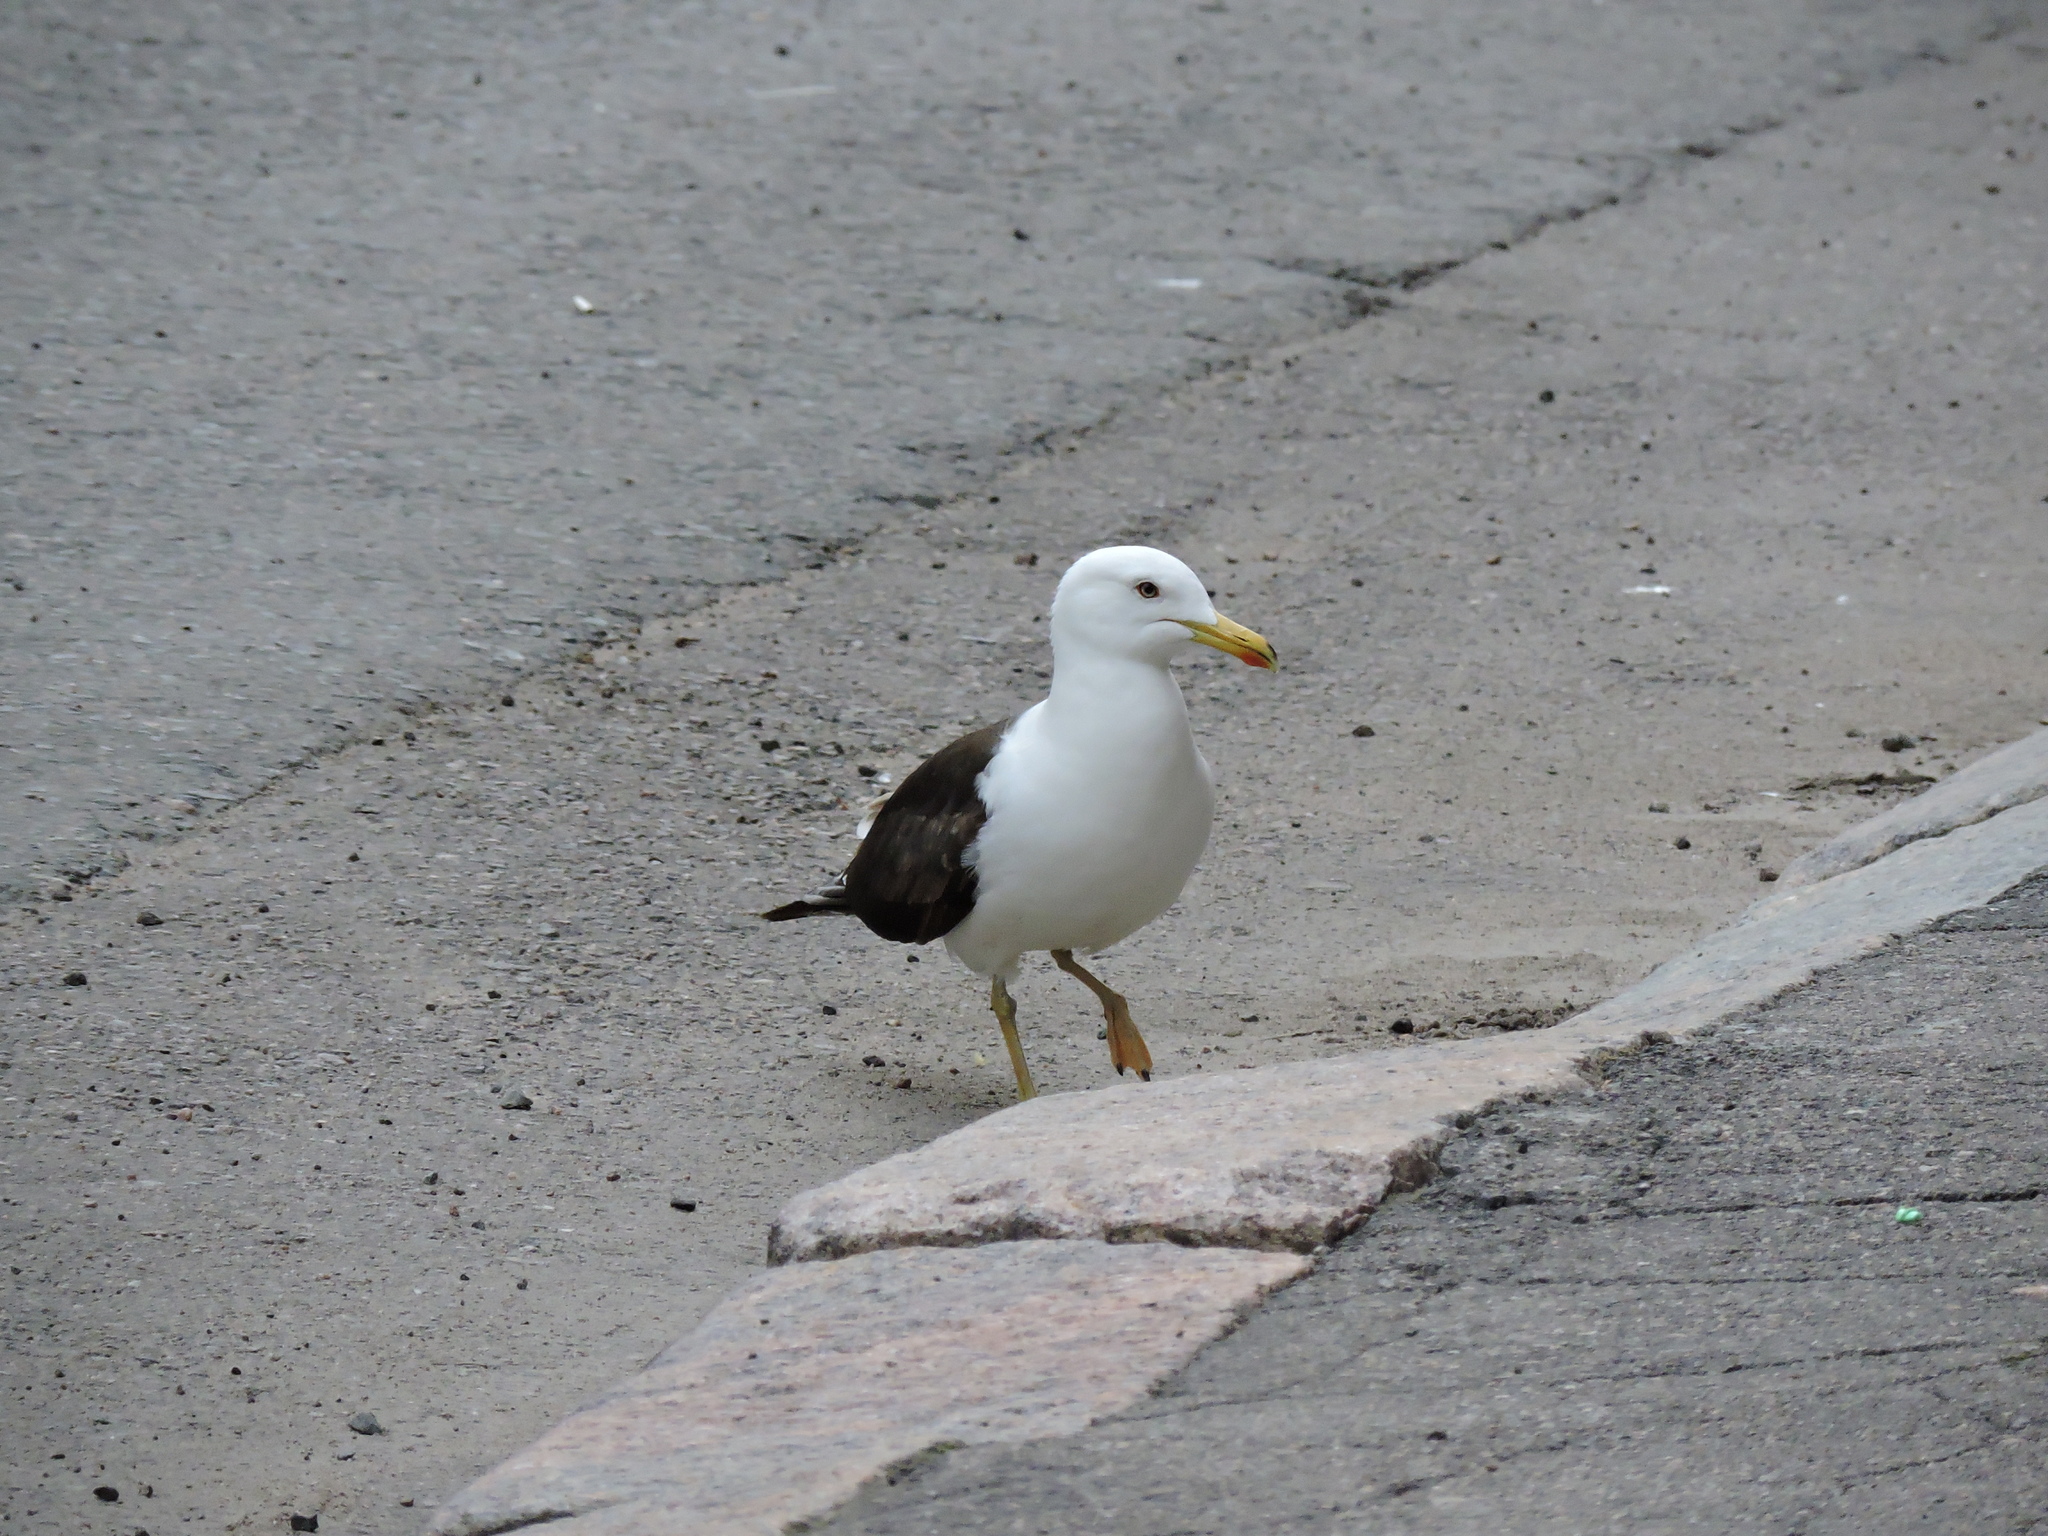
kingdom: Animalia
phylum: Chordata
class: Aves
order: Charadriiformes
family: Laridae
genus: Larus
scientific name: Larus fuscus
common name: Lesser black-backed gull
